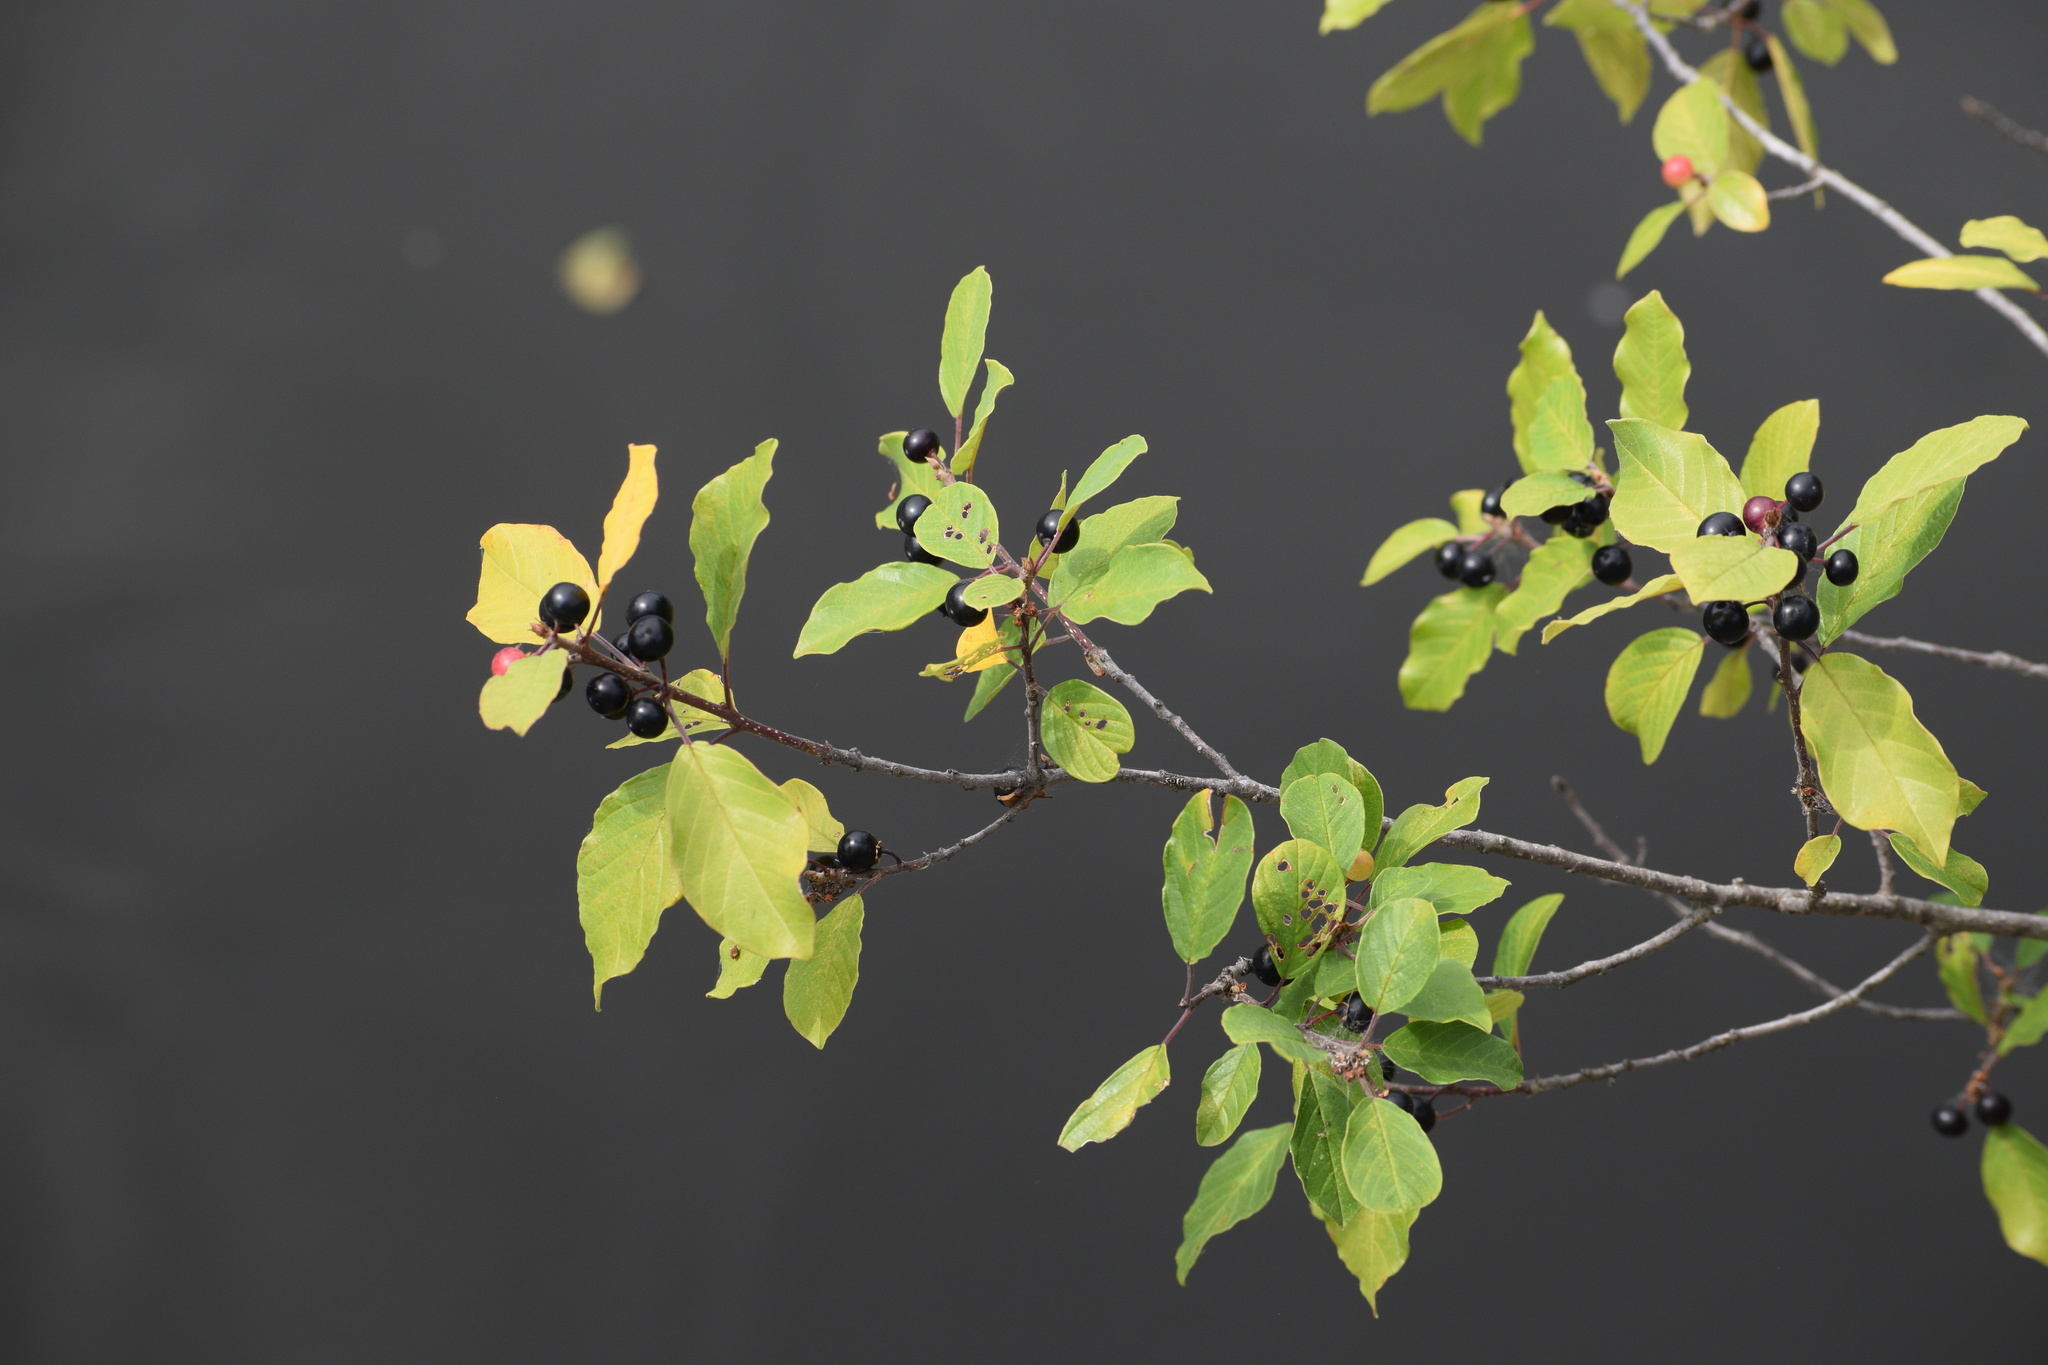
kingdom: Plantae
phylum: Tracheophyta
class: Magnoliopsida
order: Rosales
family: Rhamnaceae
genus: Frangula
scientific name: Frangula alnus
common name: Alder buckthorn
